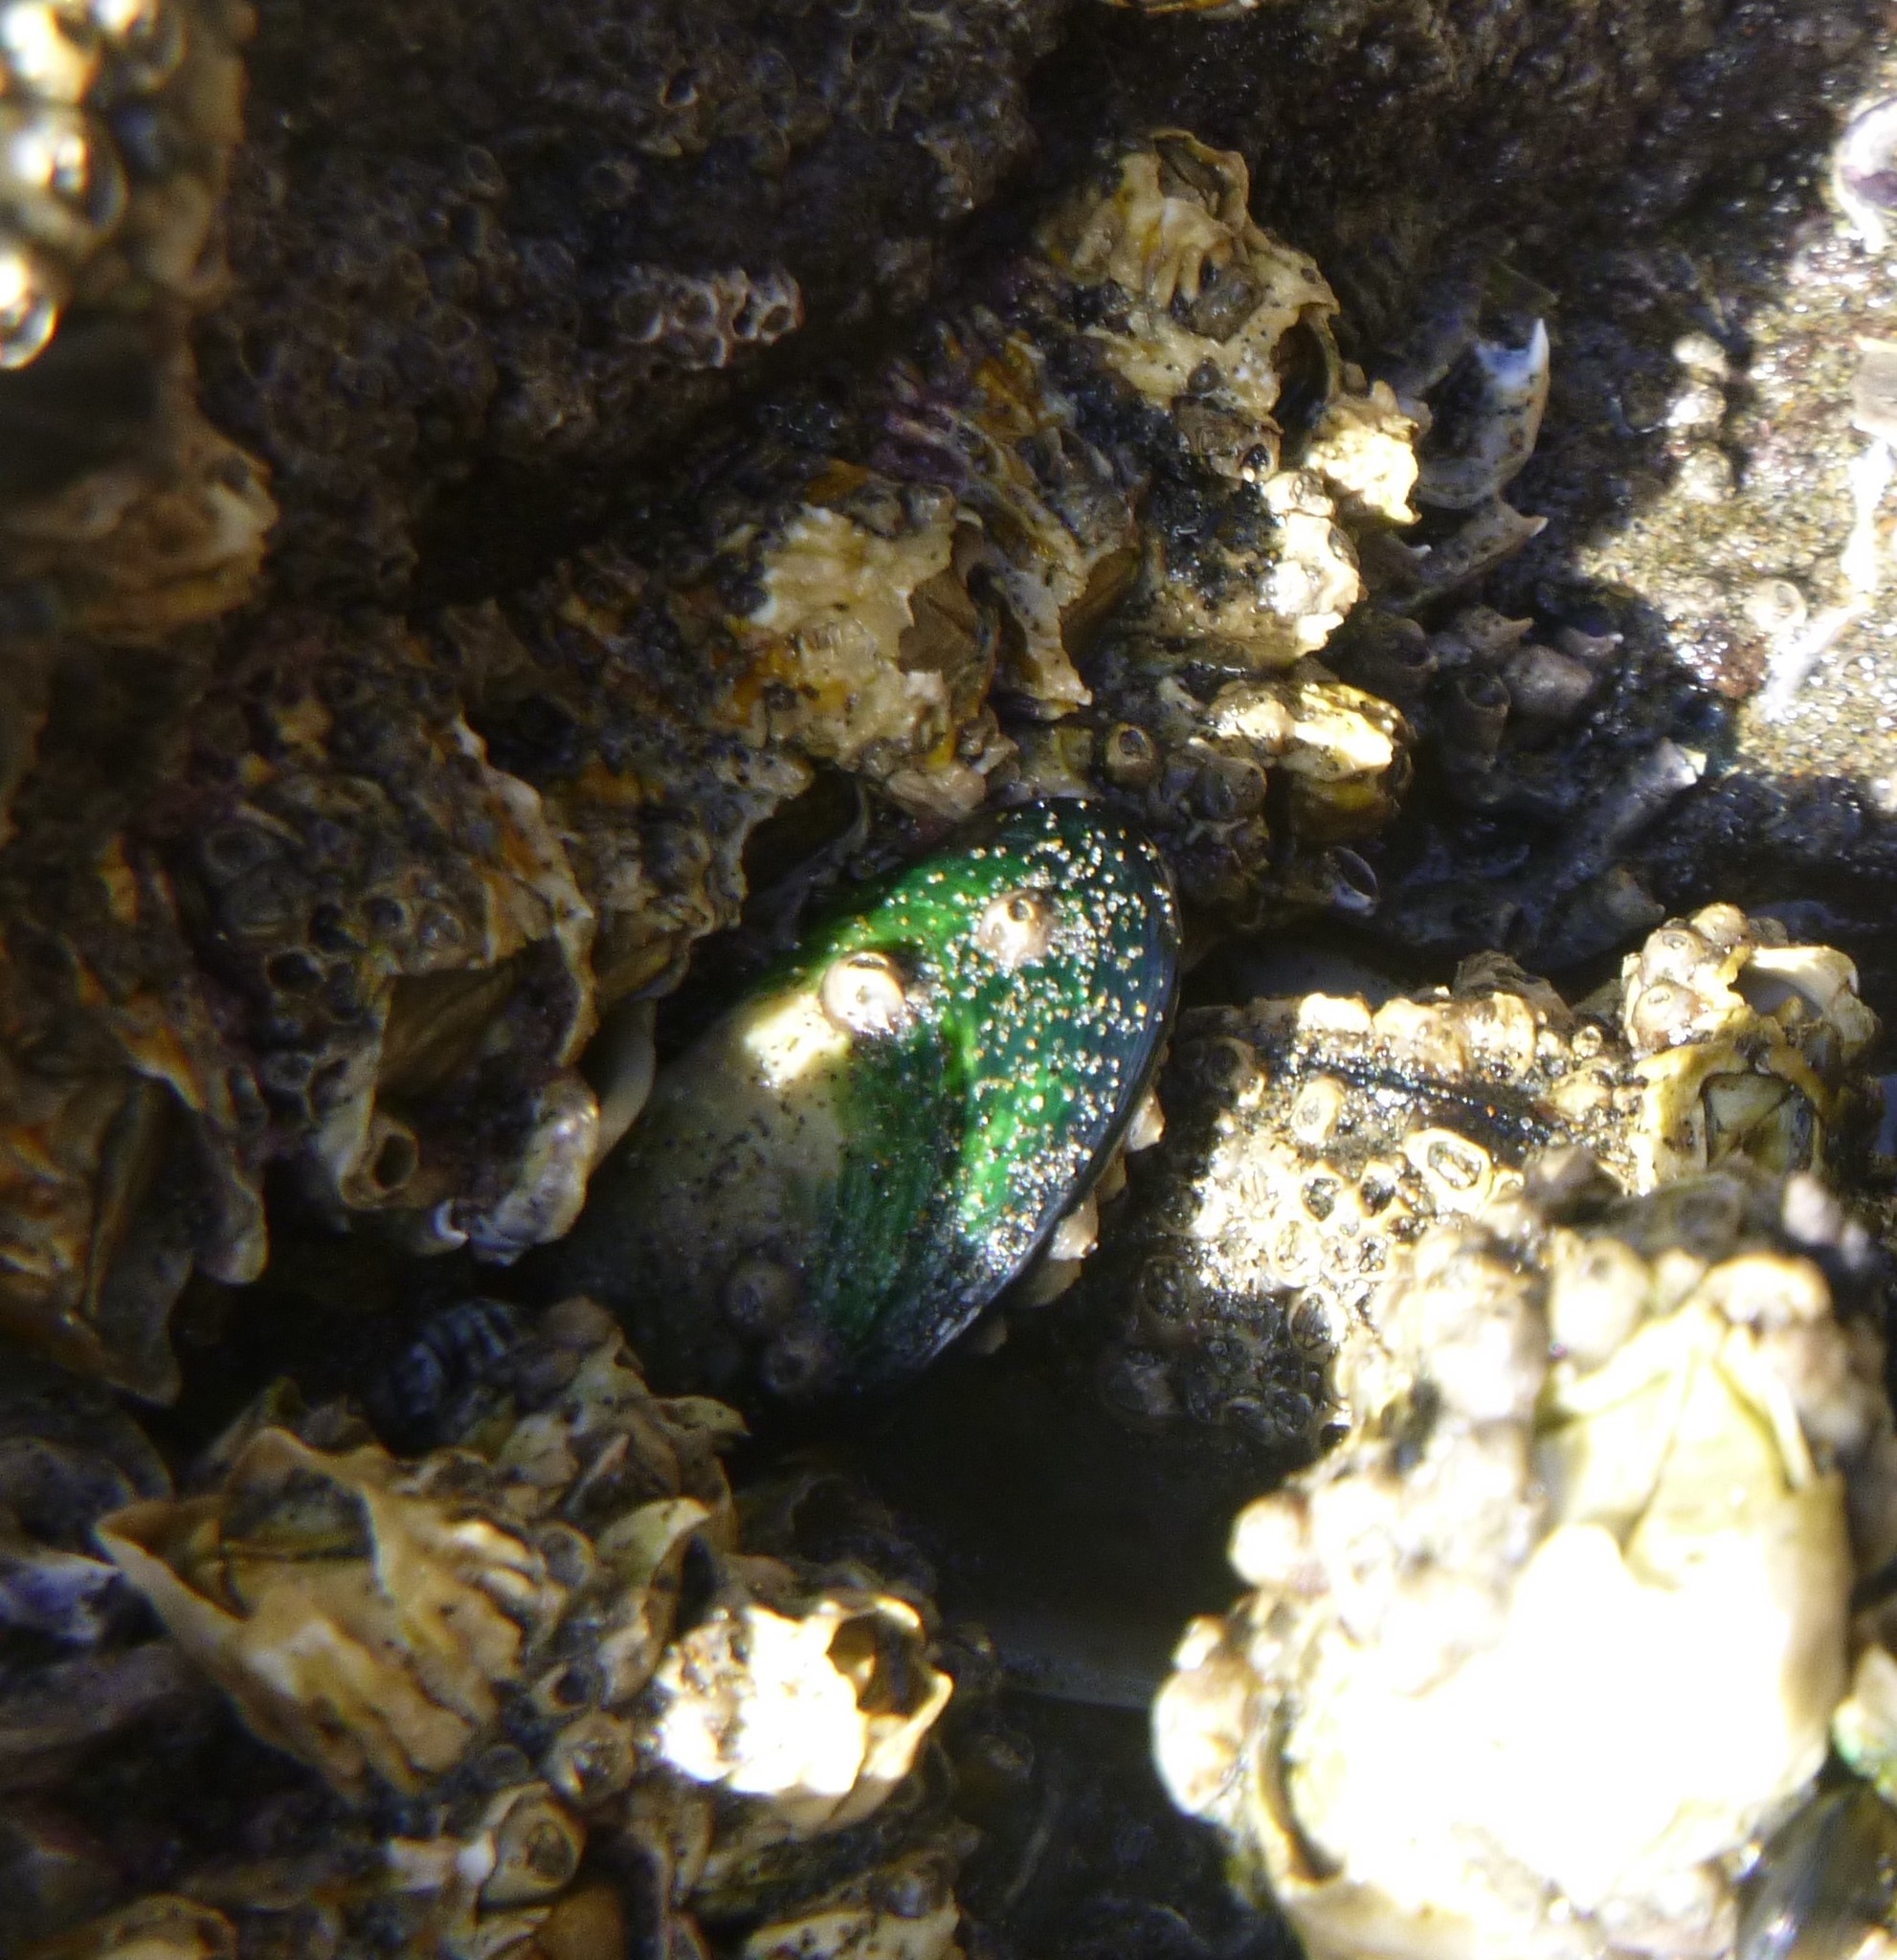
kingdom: Animalia
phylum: Mollusca
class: Bivalvia
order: Mytilida
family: Mytilidae
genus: Perna
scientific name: Perna canaliculus
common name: New zealand greenshelltm
